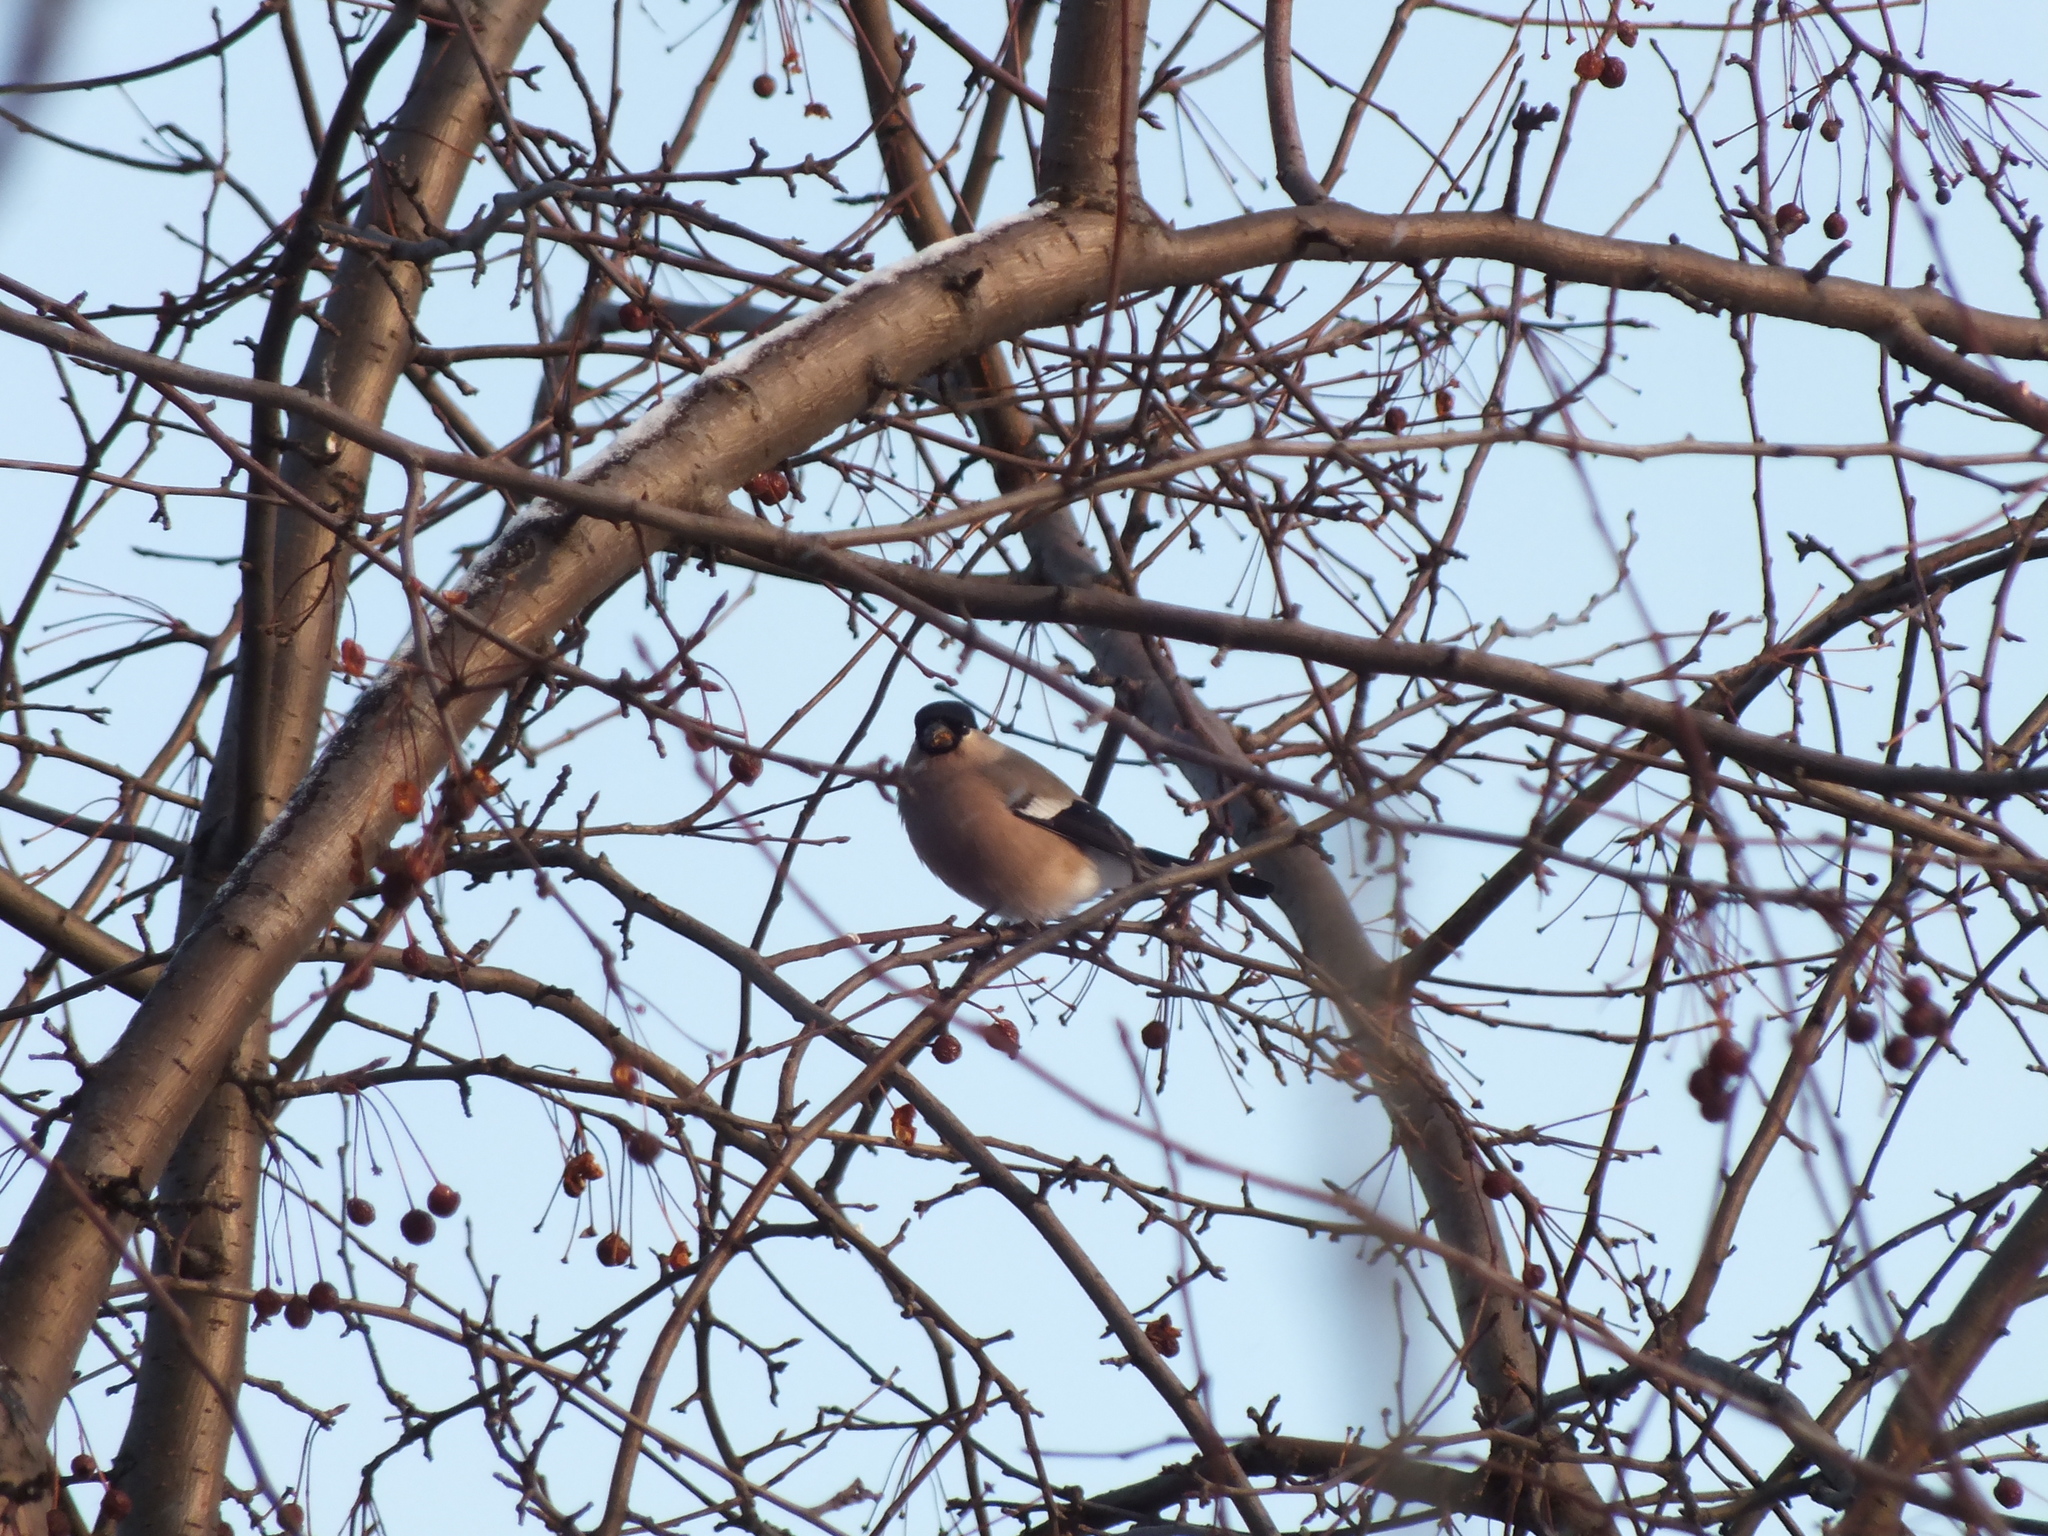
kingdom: Animalia
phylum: Chordata
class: Aves
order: Passeriformes
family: Fringillidae
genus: Pyrrhula
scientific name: Pyrrhula pyrrhula
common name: Eurasian bullfinch
